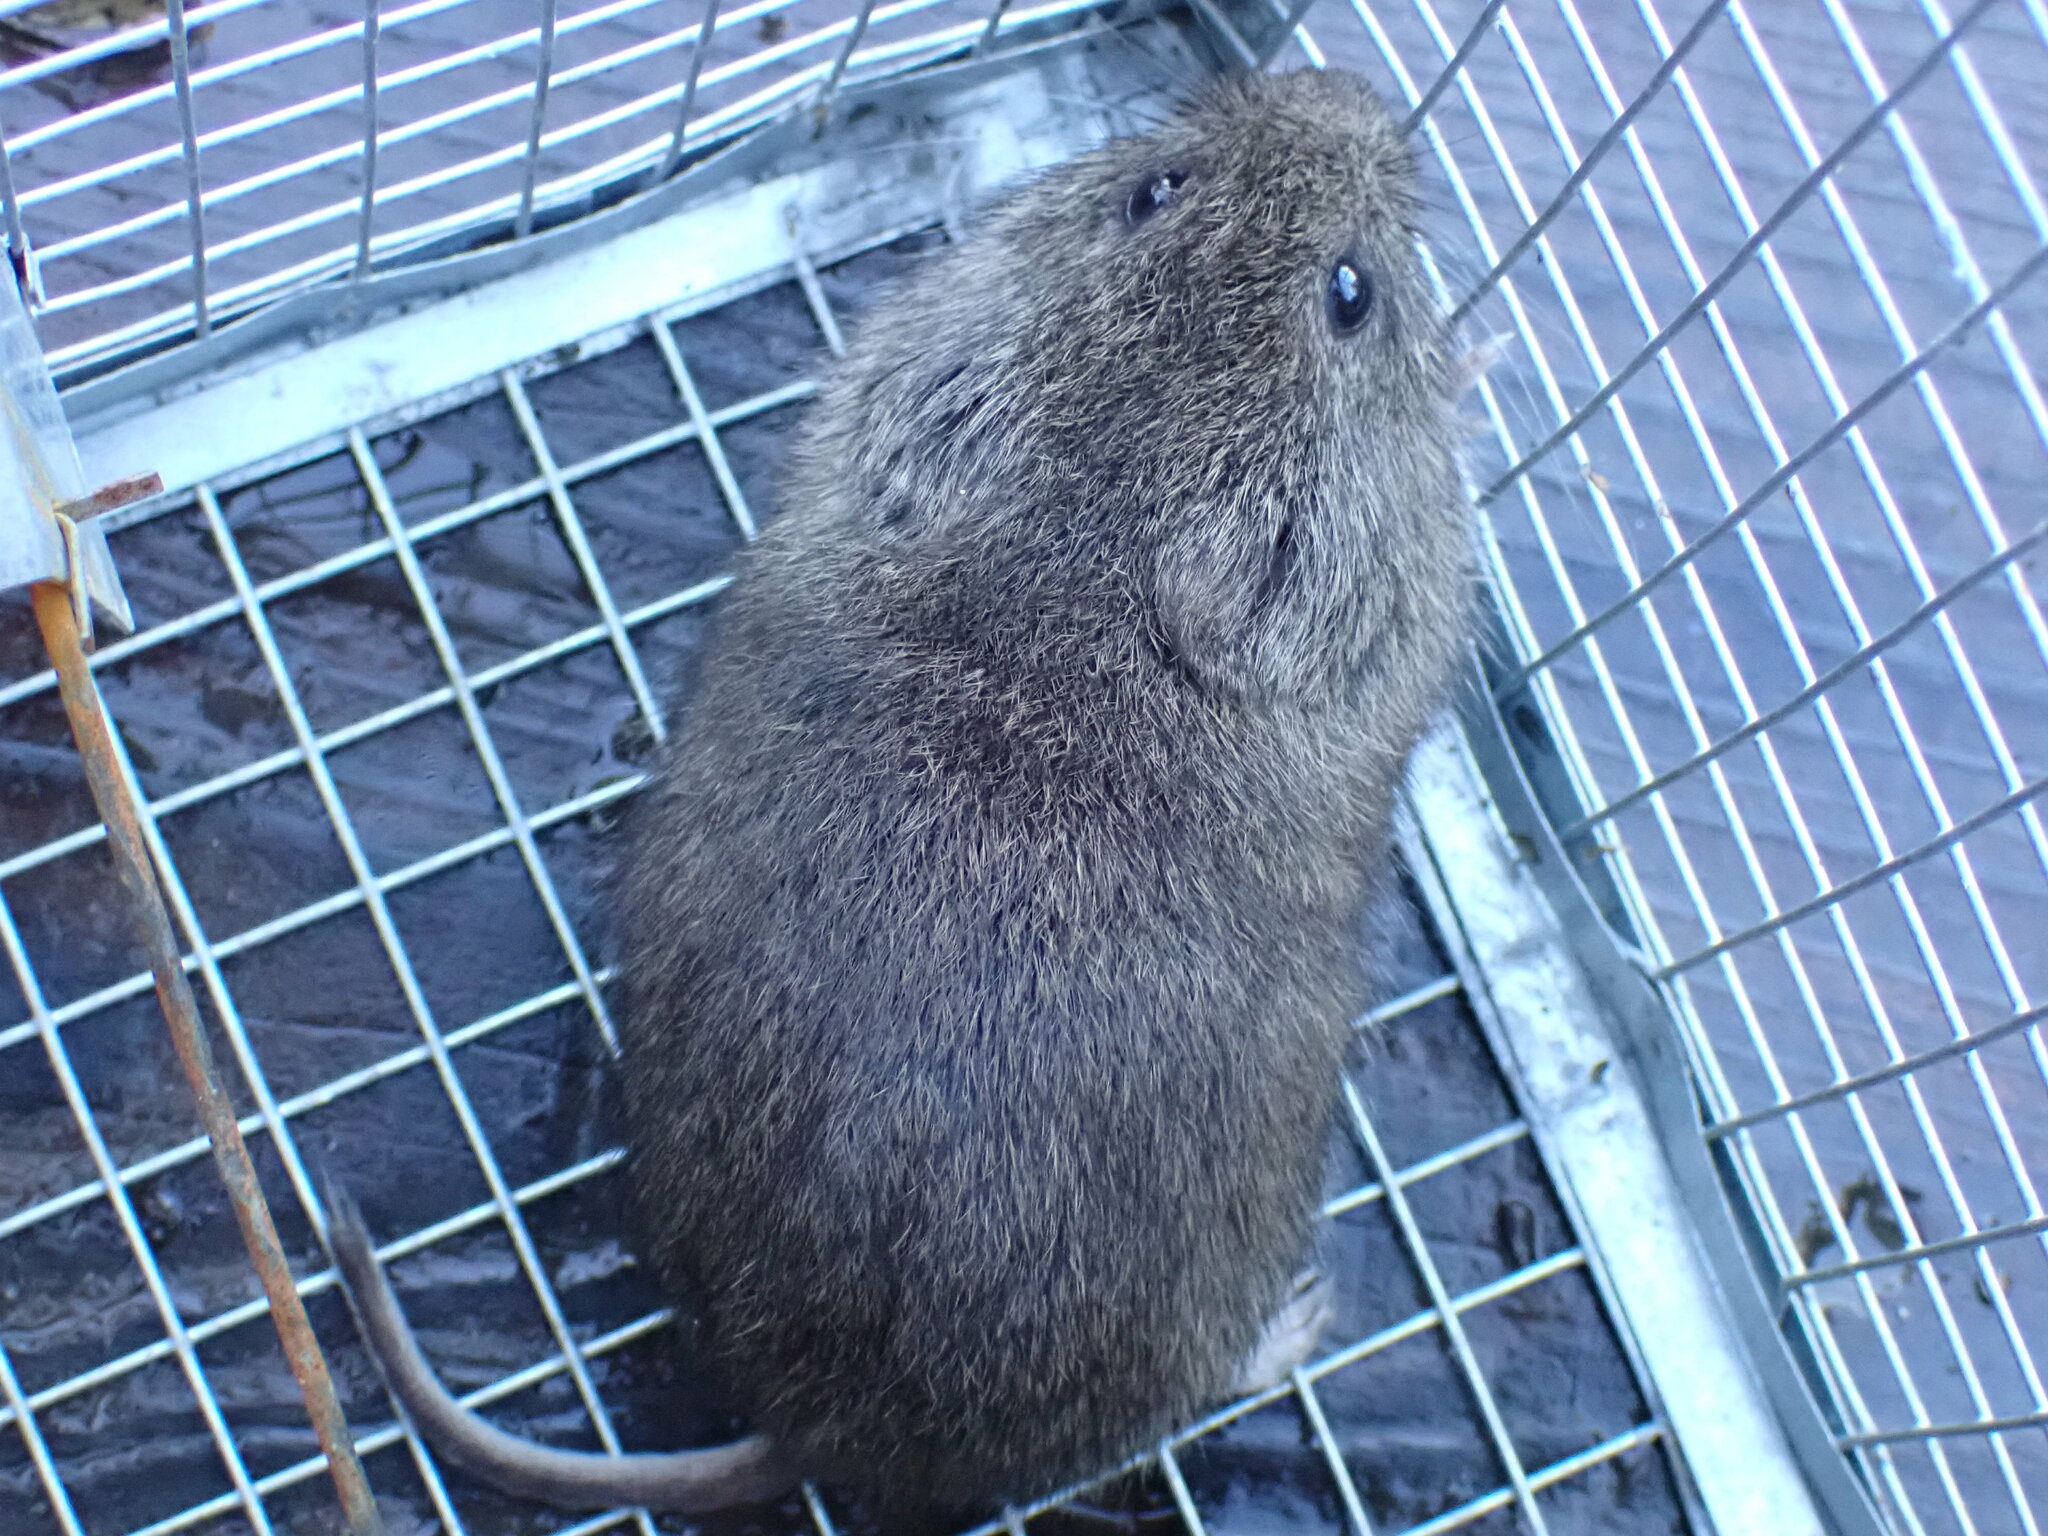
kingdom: Animalia
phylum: Chordata
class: Mammalia
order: Rodentia
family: Cricetidae
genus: Microtus
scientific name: Microtus californicus
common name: California vole
